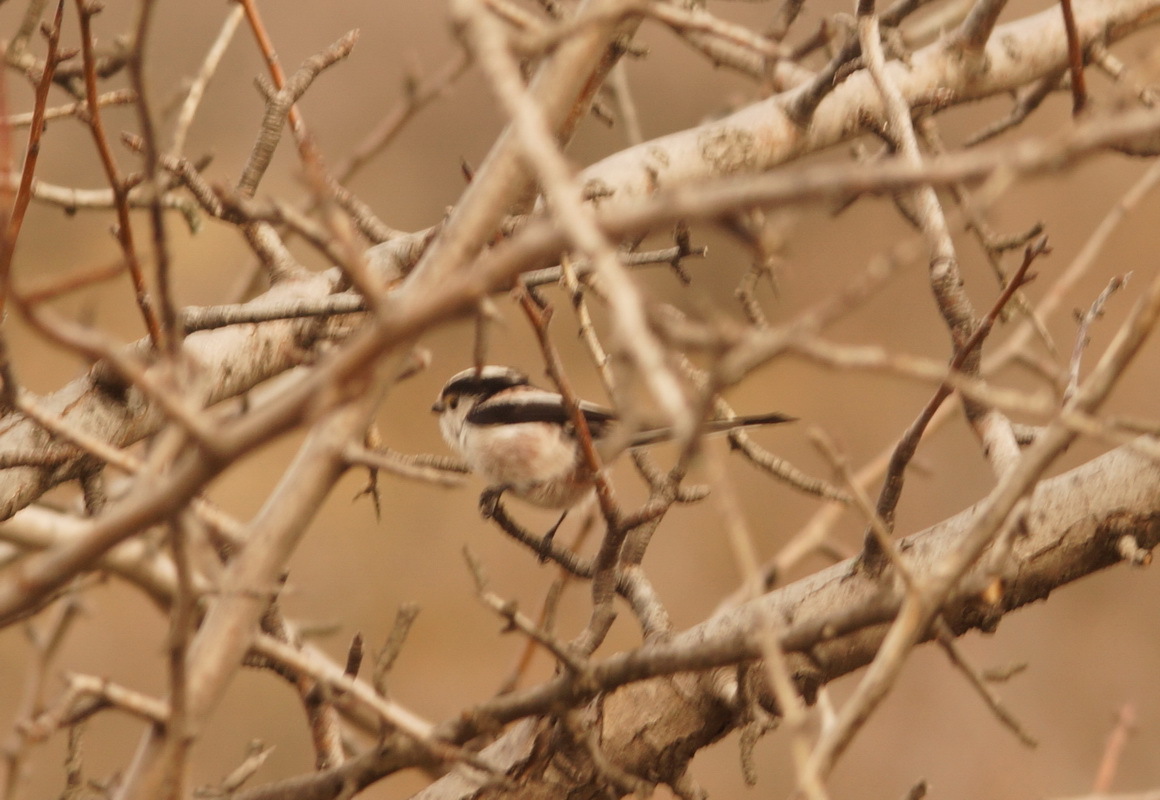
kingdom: Animalia
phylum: Chordata
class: Aves
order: Passeriformes
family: Aegithalidae
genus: Aegithalos
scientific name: Aegithalos caudatus
